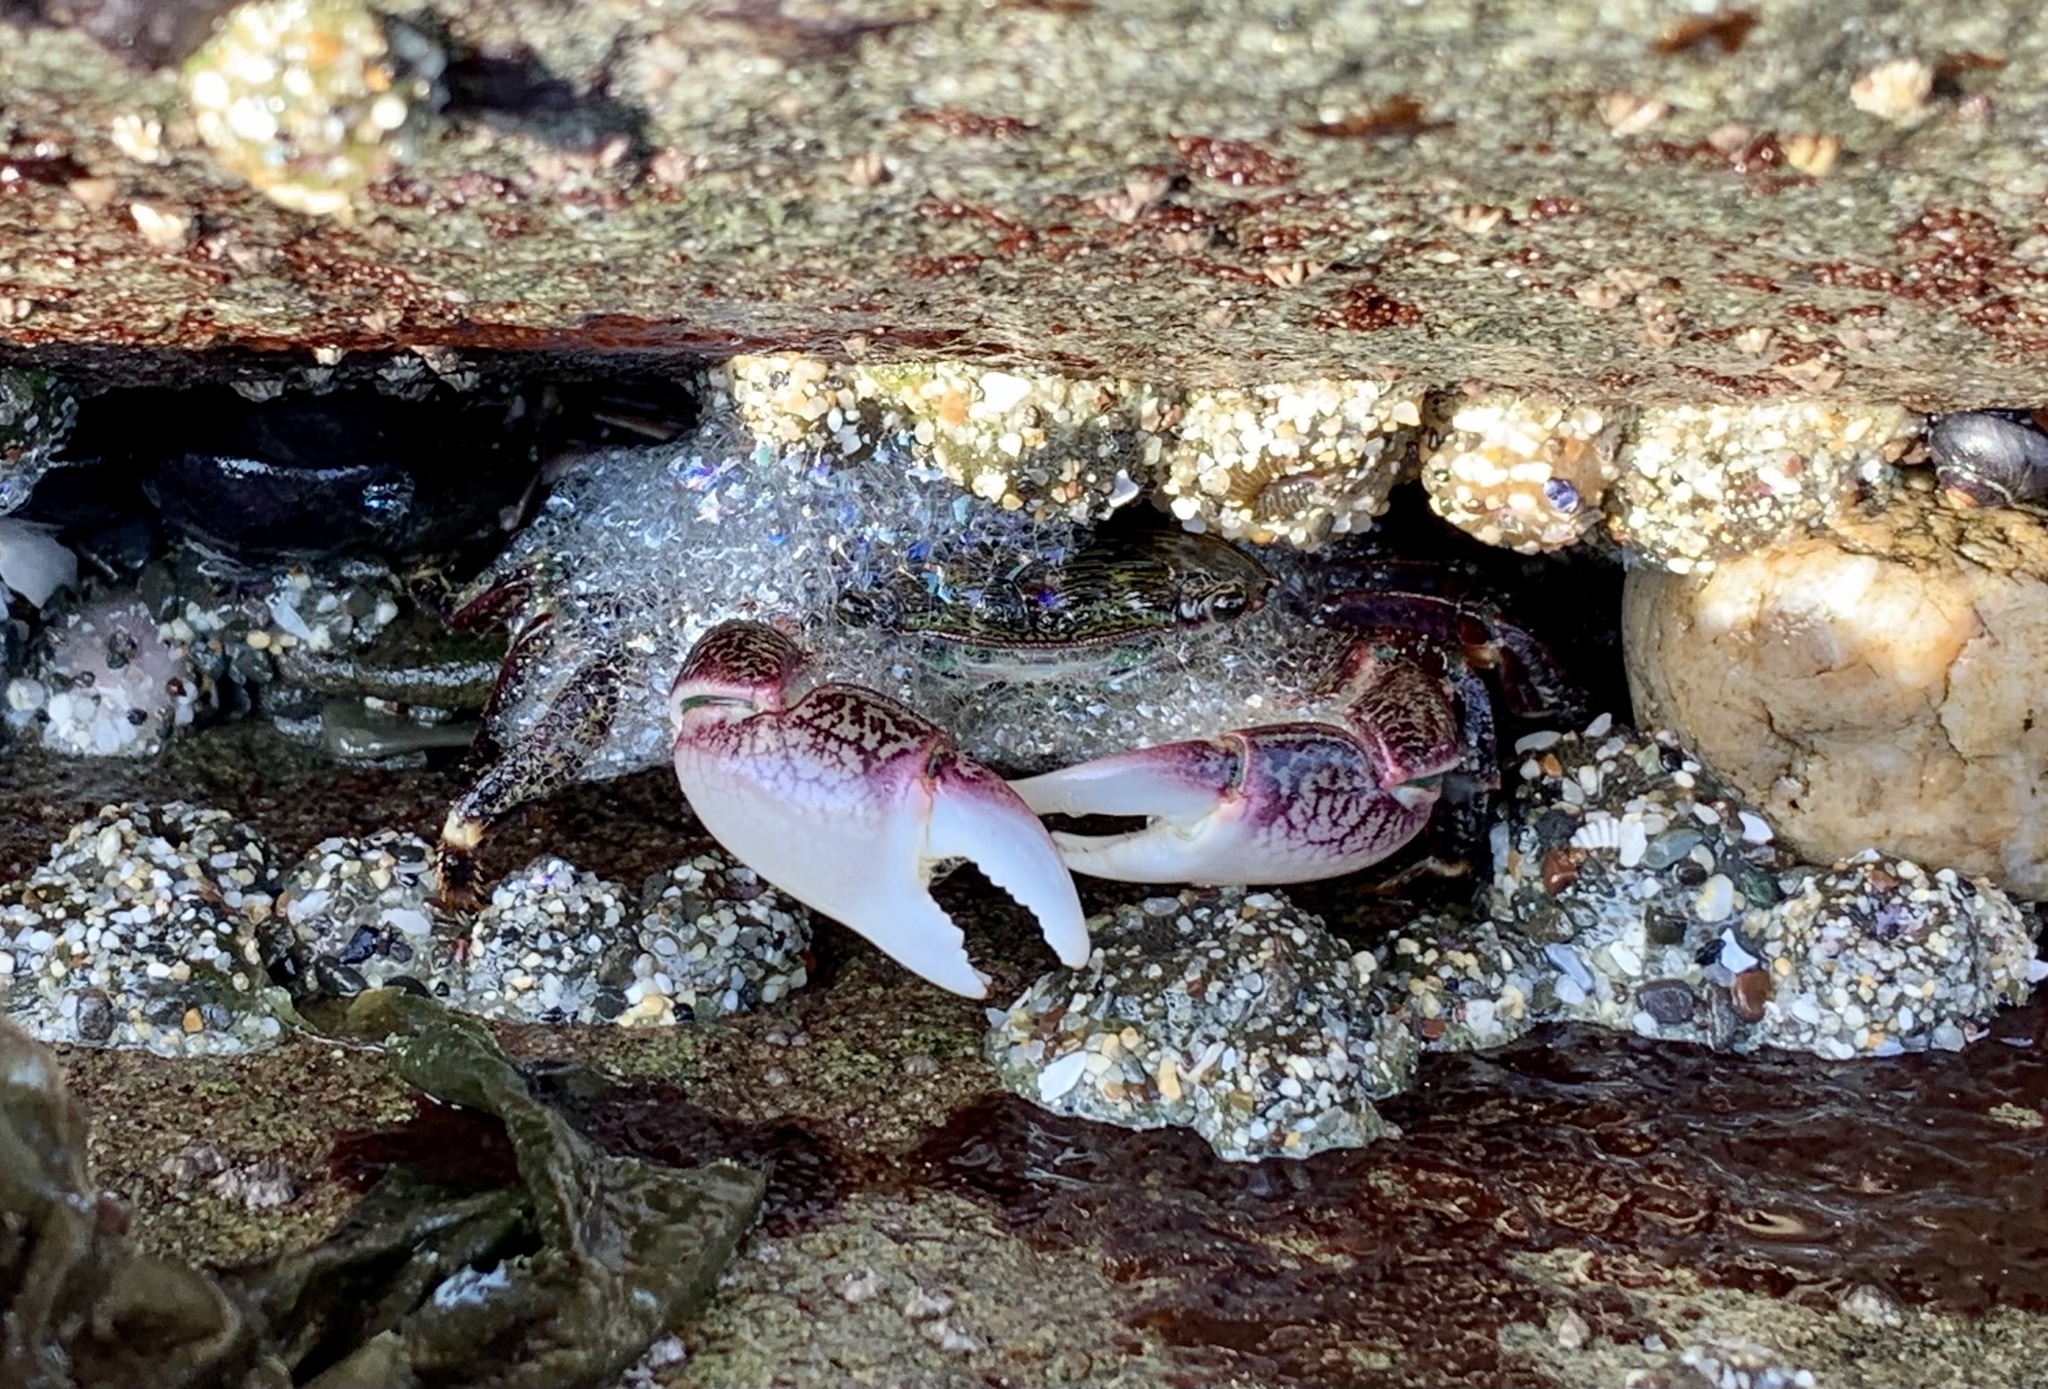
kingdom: Animalia
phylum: Arthropoda
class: Malacostraca
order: Decapoda
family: Grapsidae
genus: Pachygrapsus
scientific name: Pachygrapsus crassipes
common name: Striped shore crab
